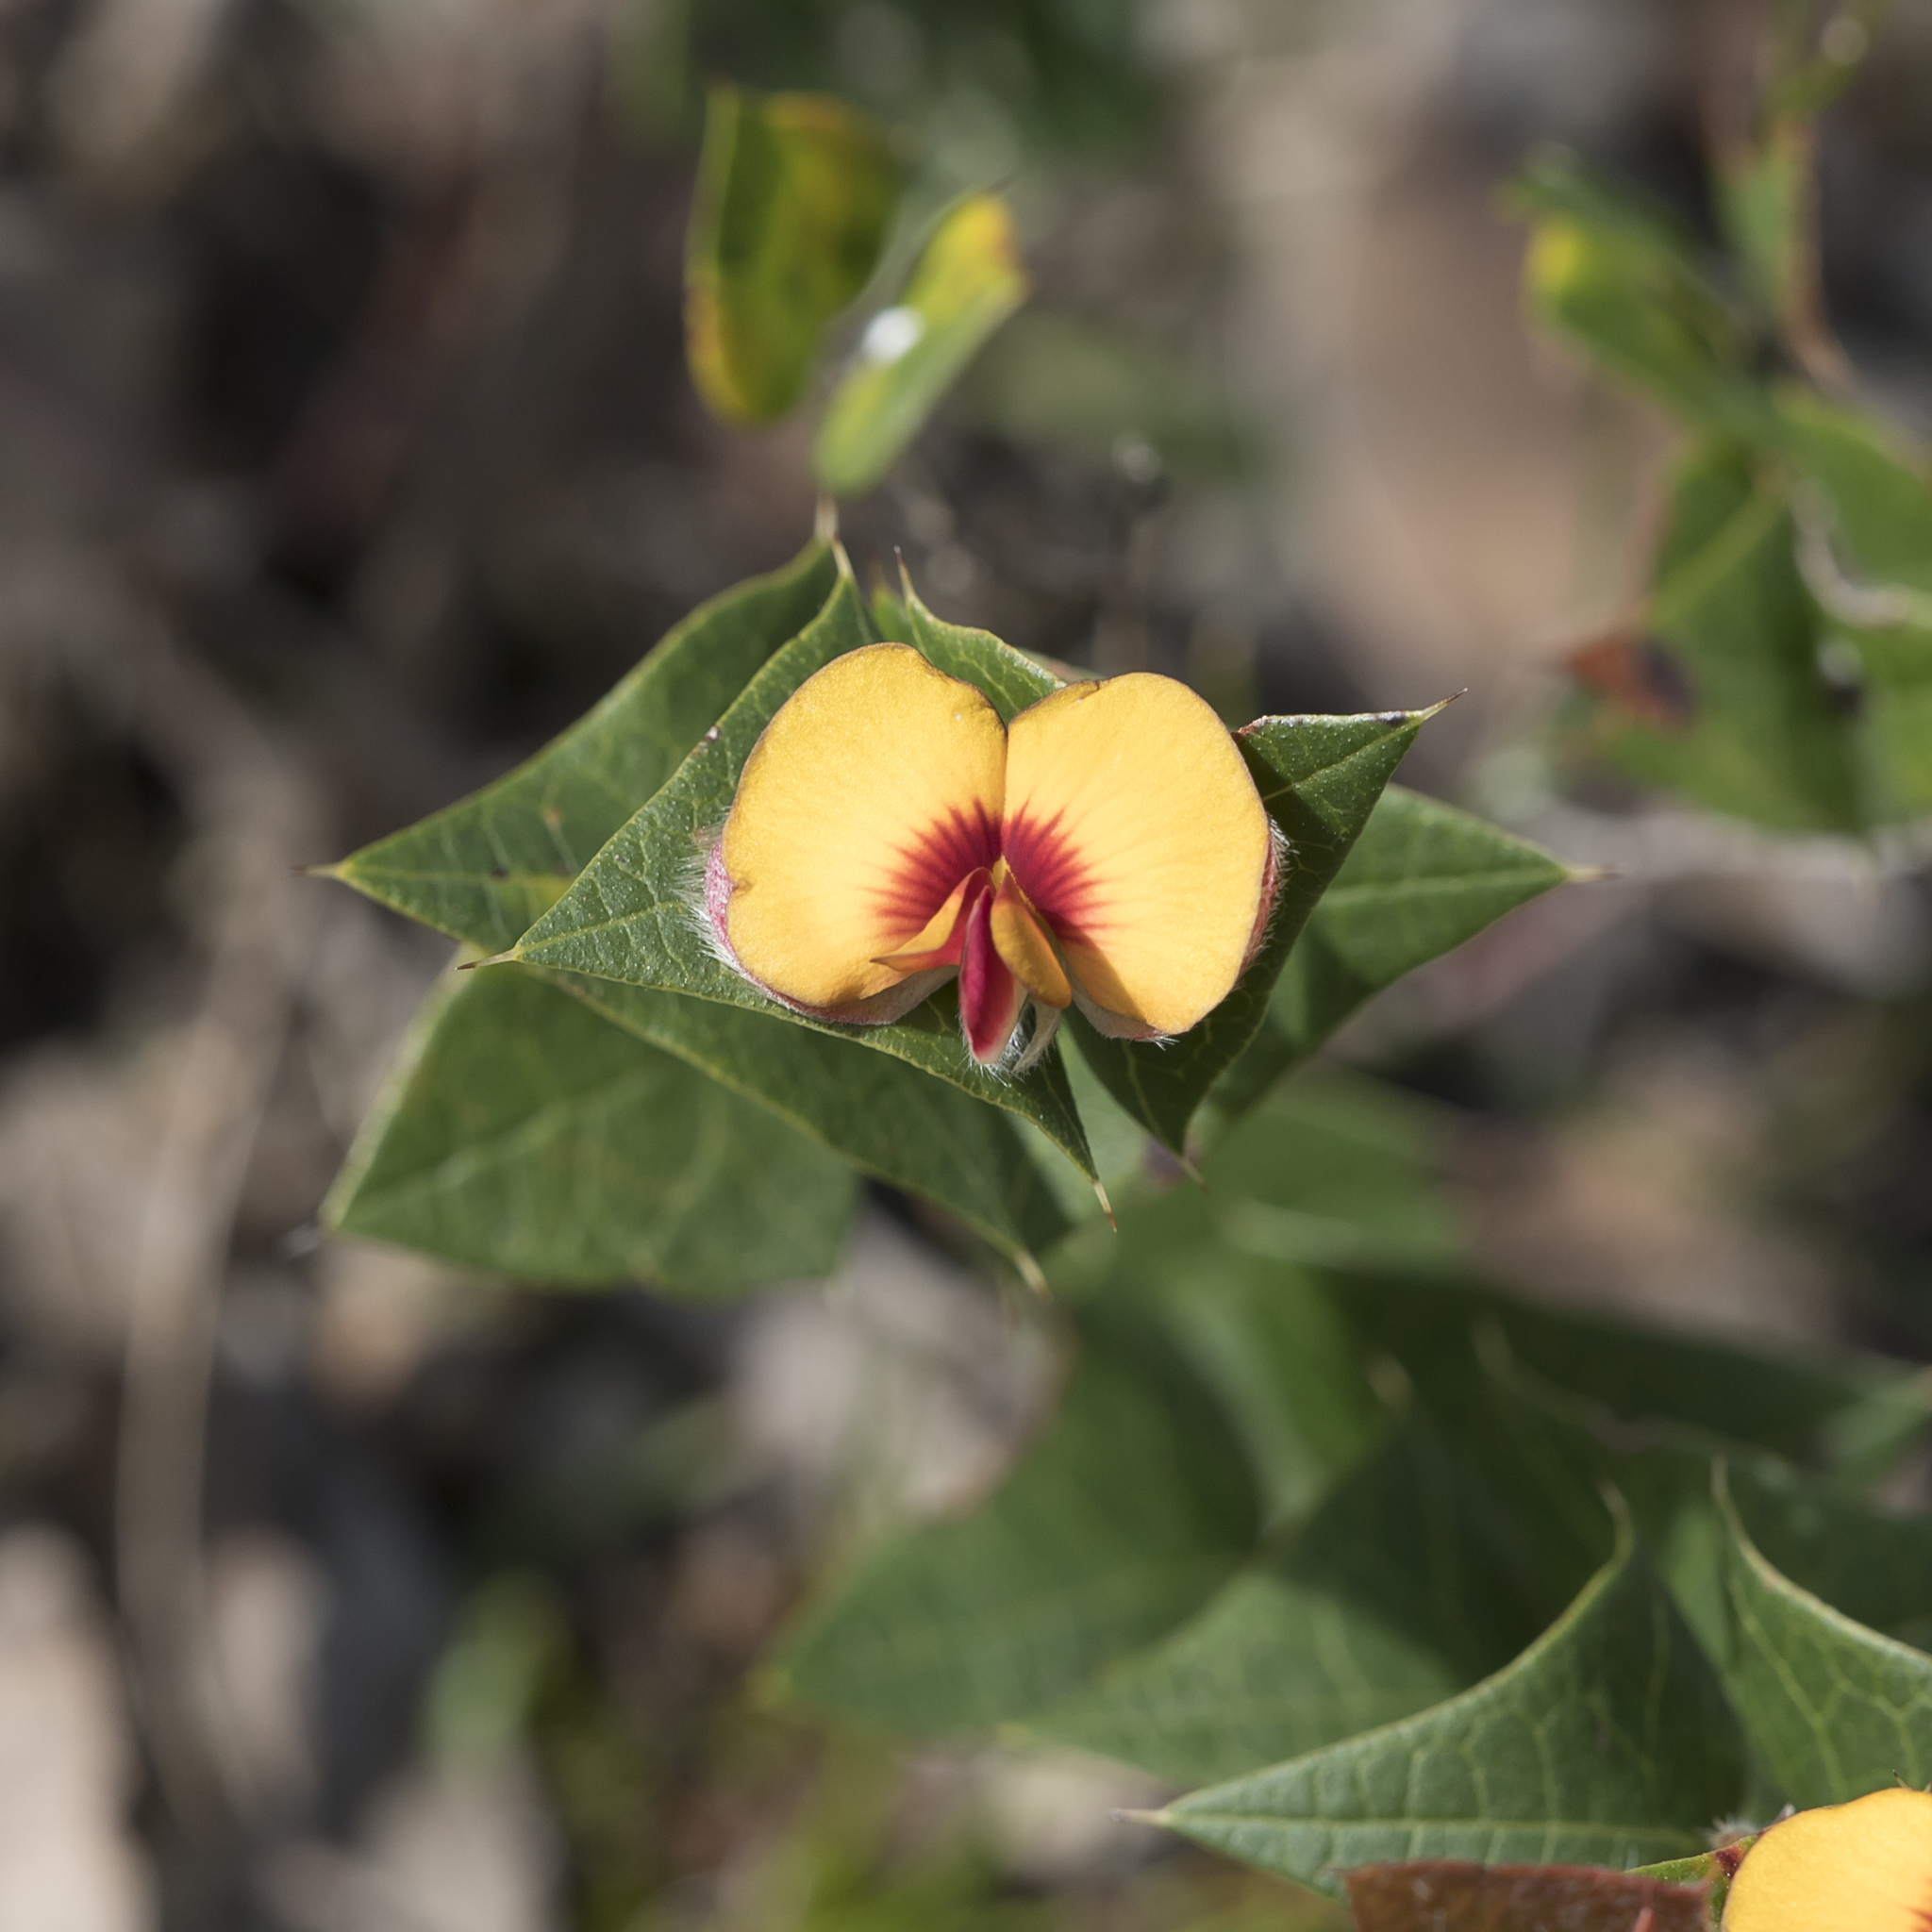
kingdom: Plantae
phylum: Tracheophyta
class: Magnoliopsida
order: Fabales
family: Fabaceae
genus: Platylobium
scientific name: Platylobium obtusangulum
